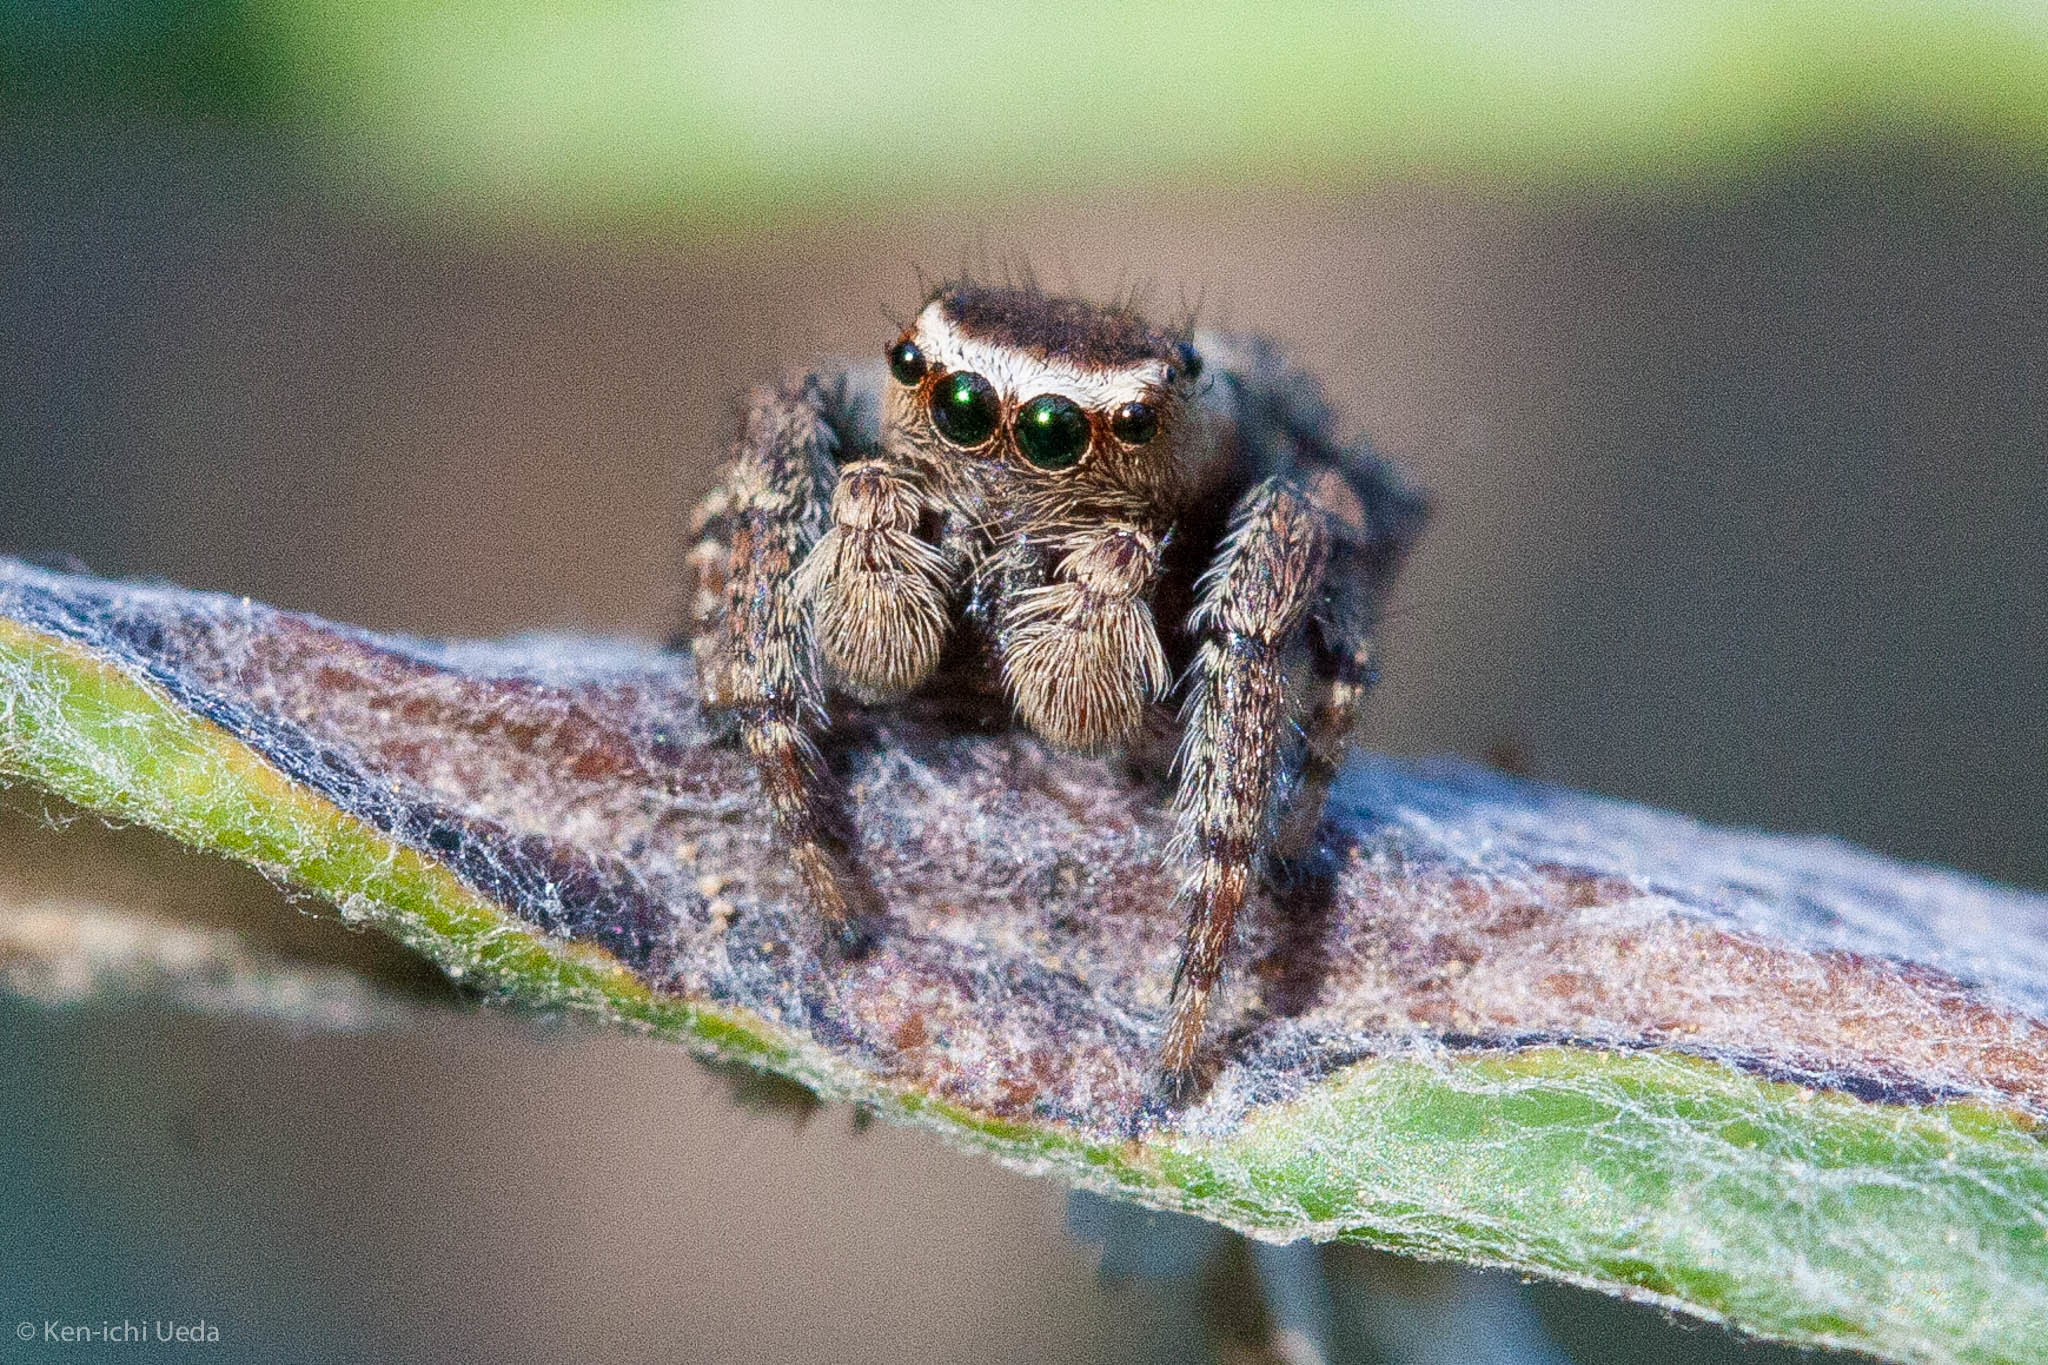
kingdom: Animalia
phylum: Arthropoda
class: Arachnida
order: Araneae
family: Salticidae
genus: Evarcha
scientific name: Evarcha proszynskii
